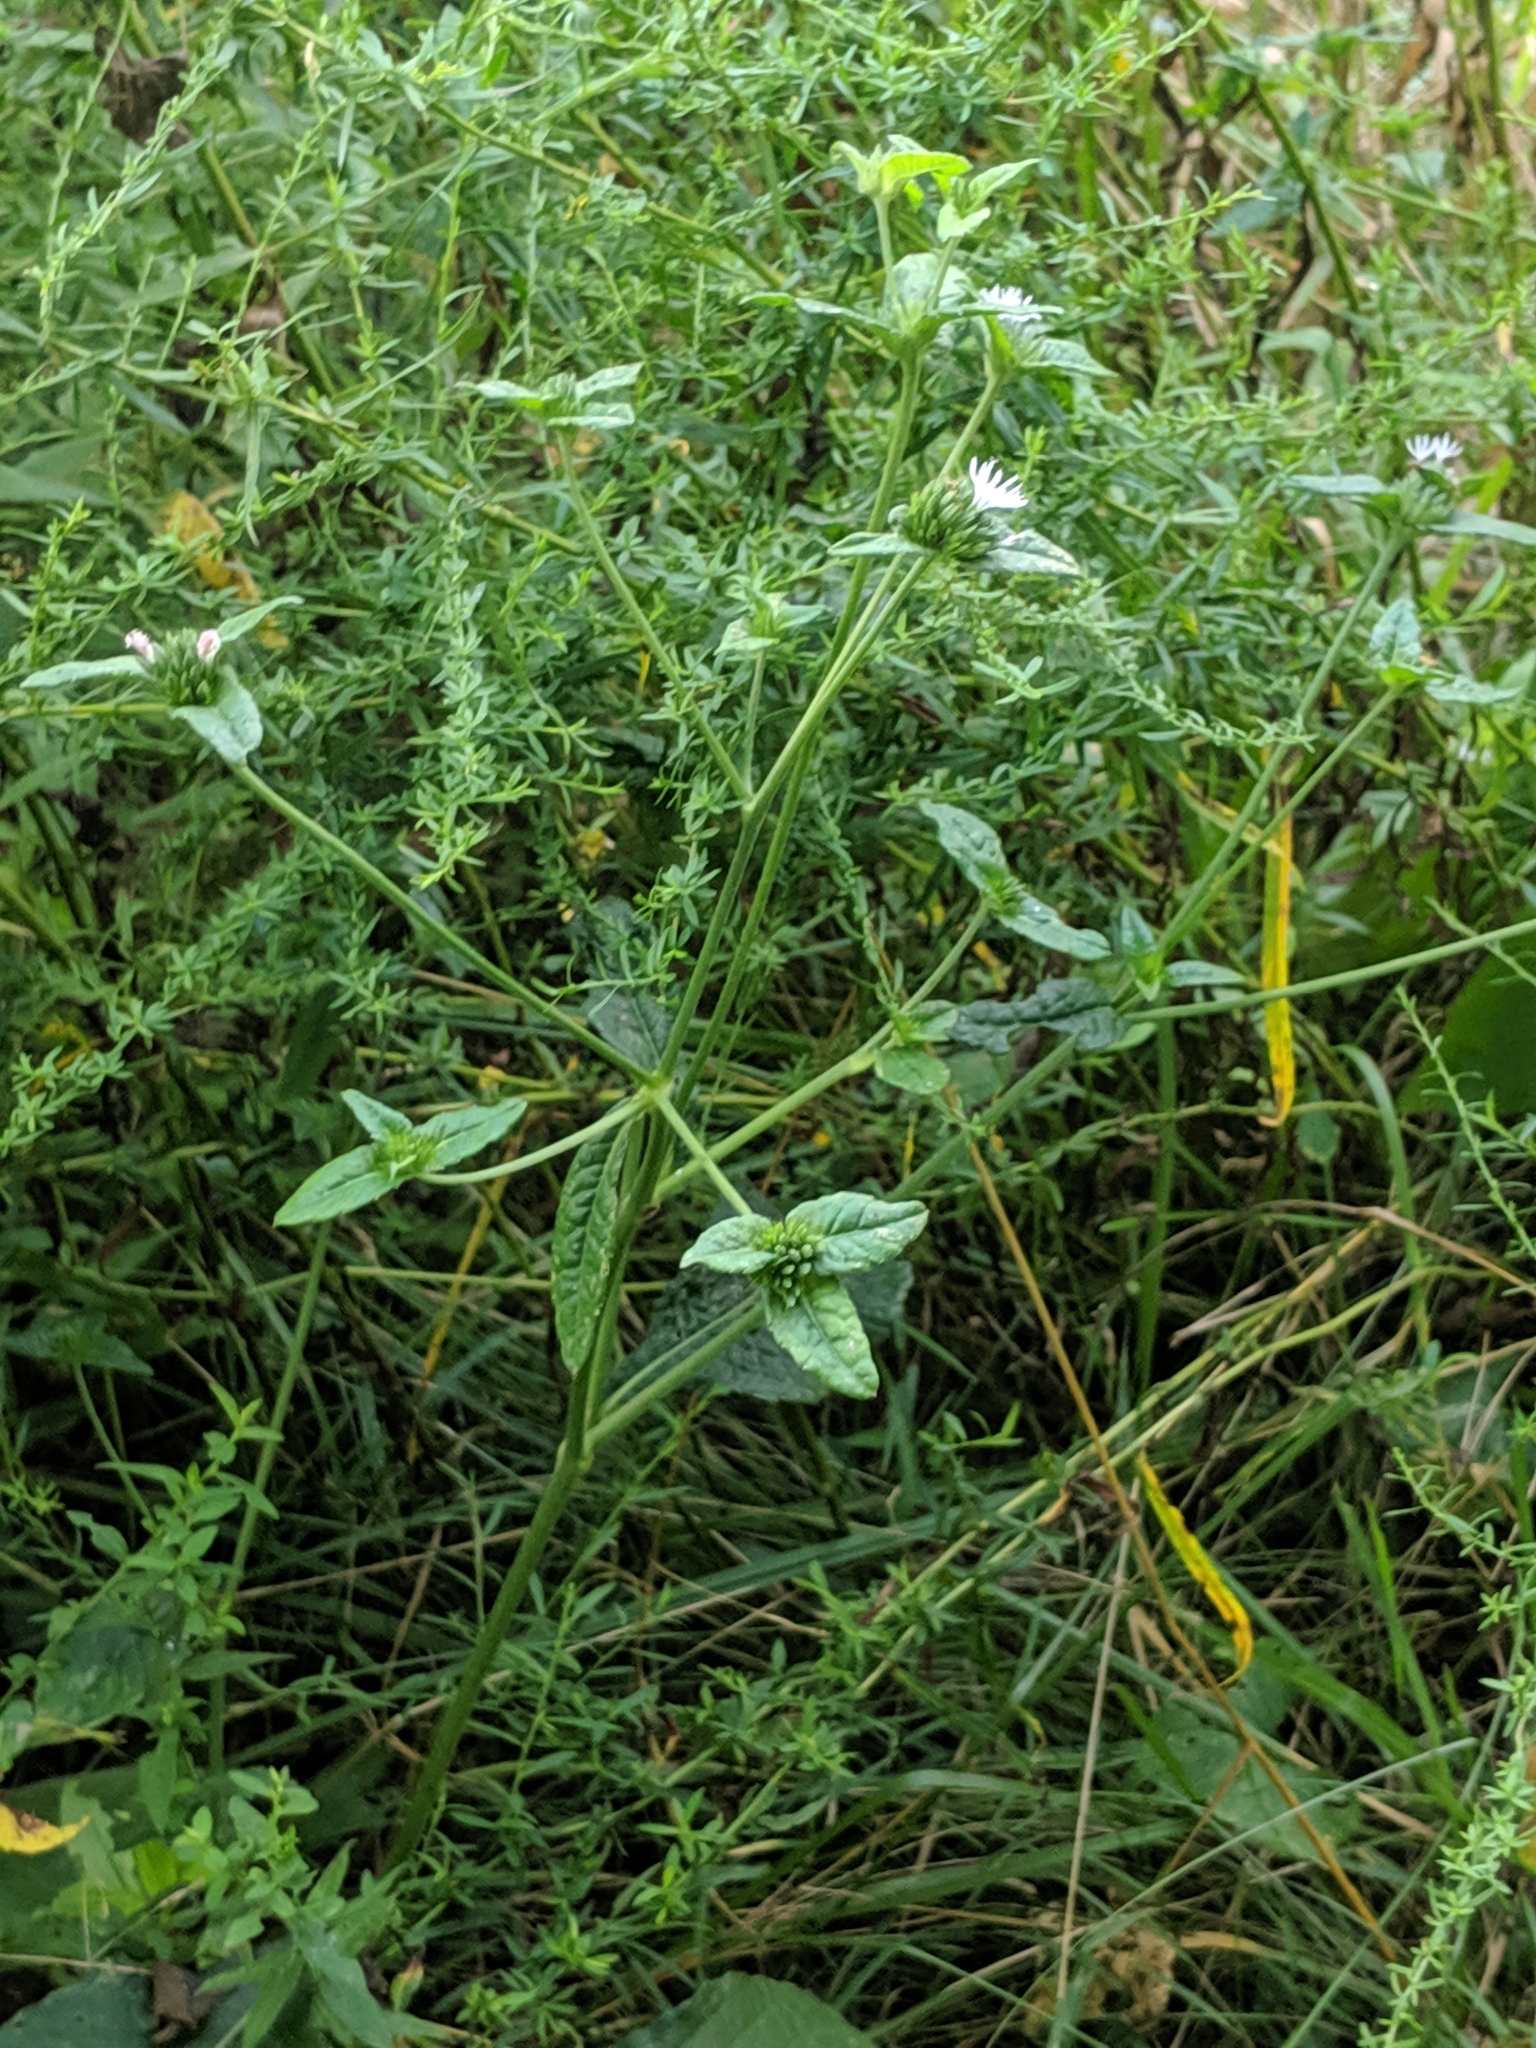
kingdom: Plantae
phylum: Tracheophyta
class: Magnoliopsida
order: Asterales
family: Asteraceae
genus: Elephantopus
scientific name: Elephantopus carolinianus
